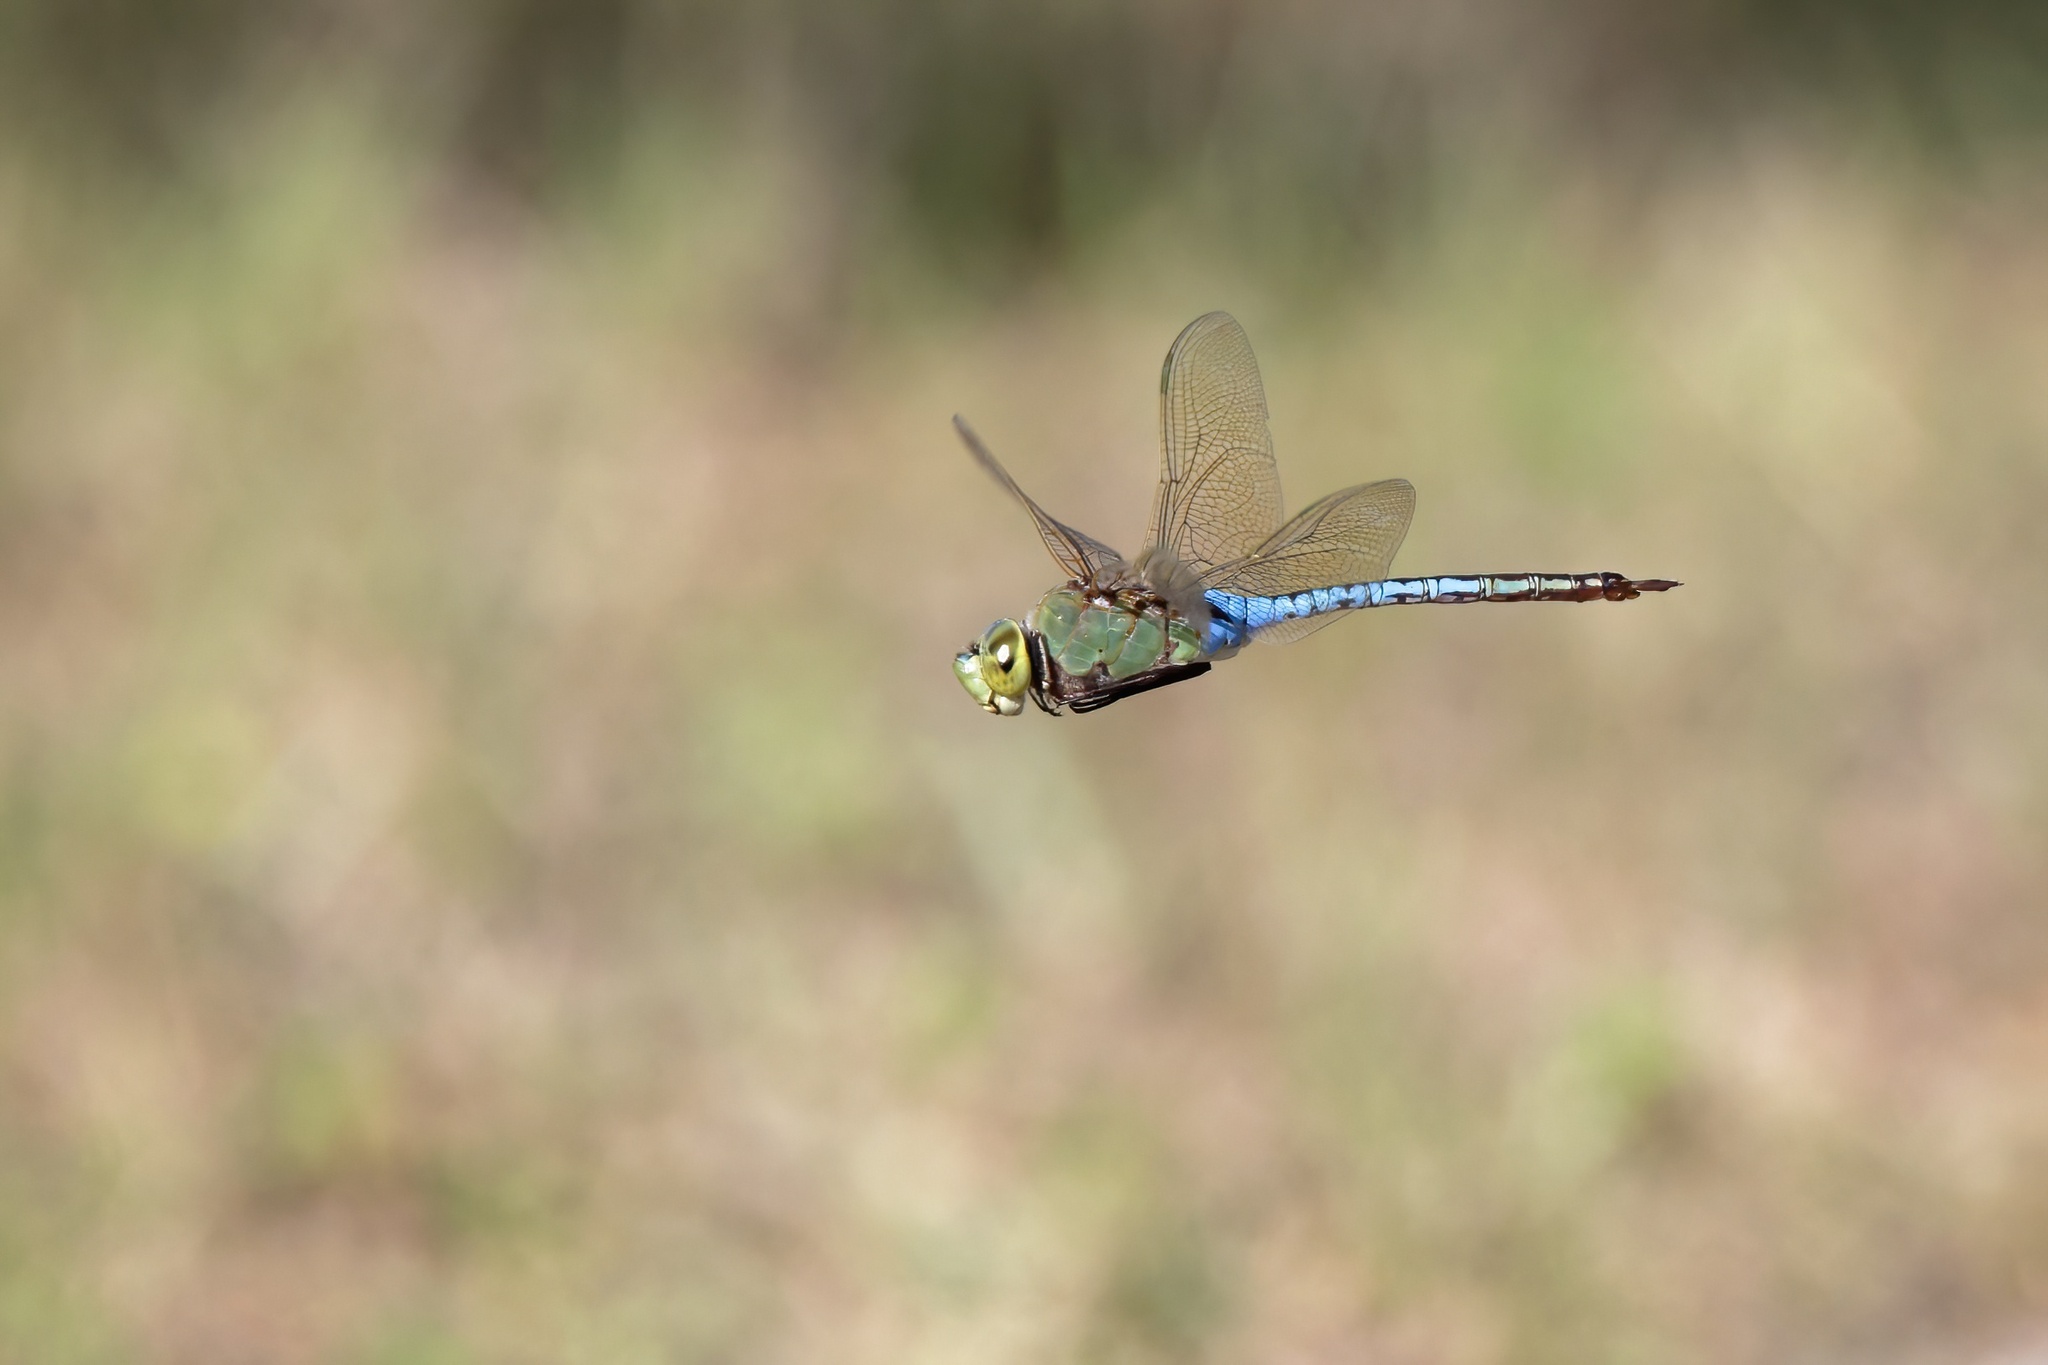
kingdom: Animalia
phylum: Arthropoda
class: Insecta
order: Odonata
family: Aeshnidae
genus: Anax
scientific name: Anax junius
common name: Common green darner
